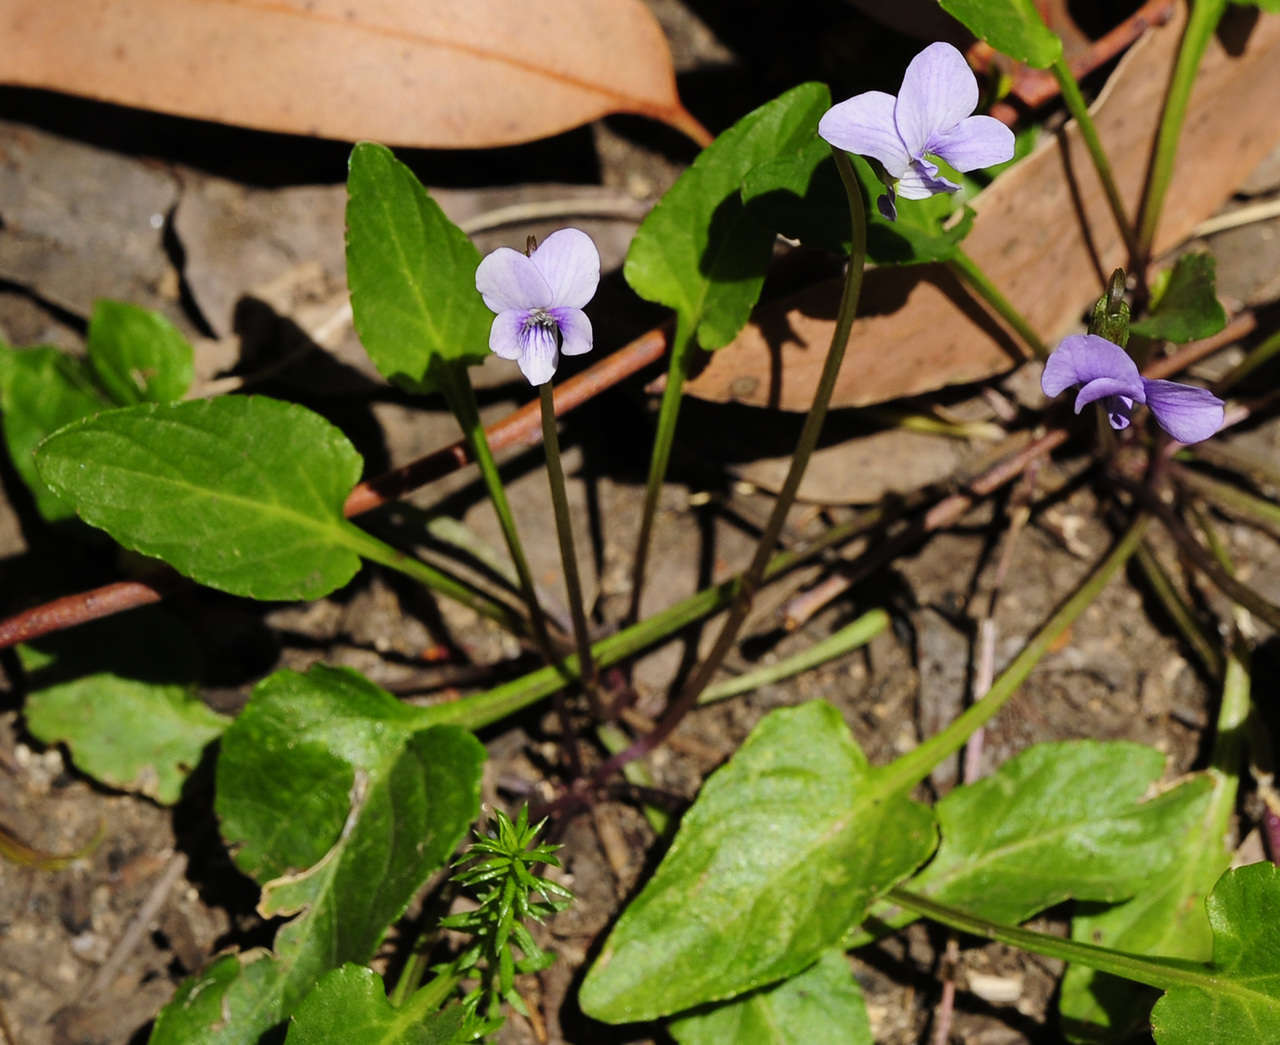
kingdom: Plantae
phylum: Tracheophyta
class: Magnoliopsida
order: Malpighiales
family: Violaceae
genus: Viola
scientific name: Viola betonicifolia
